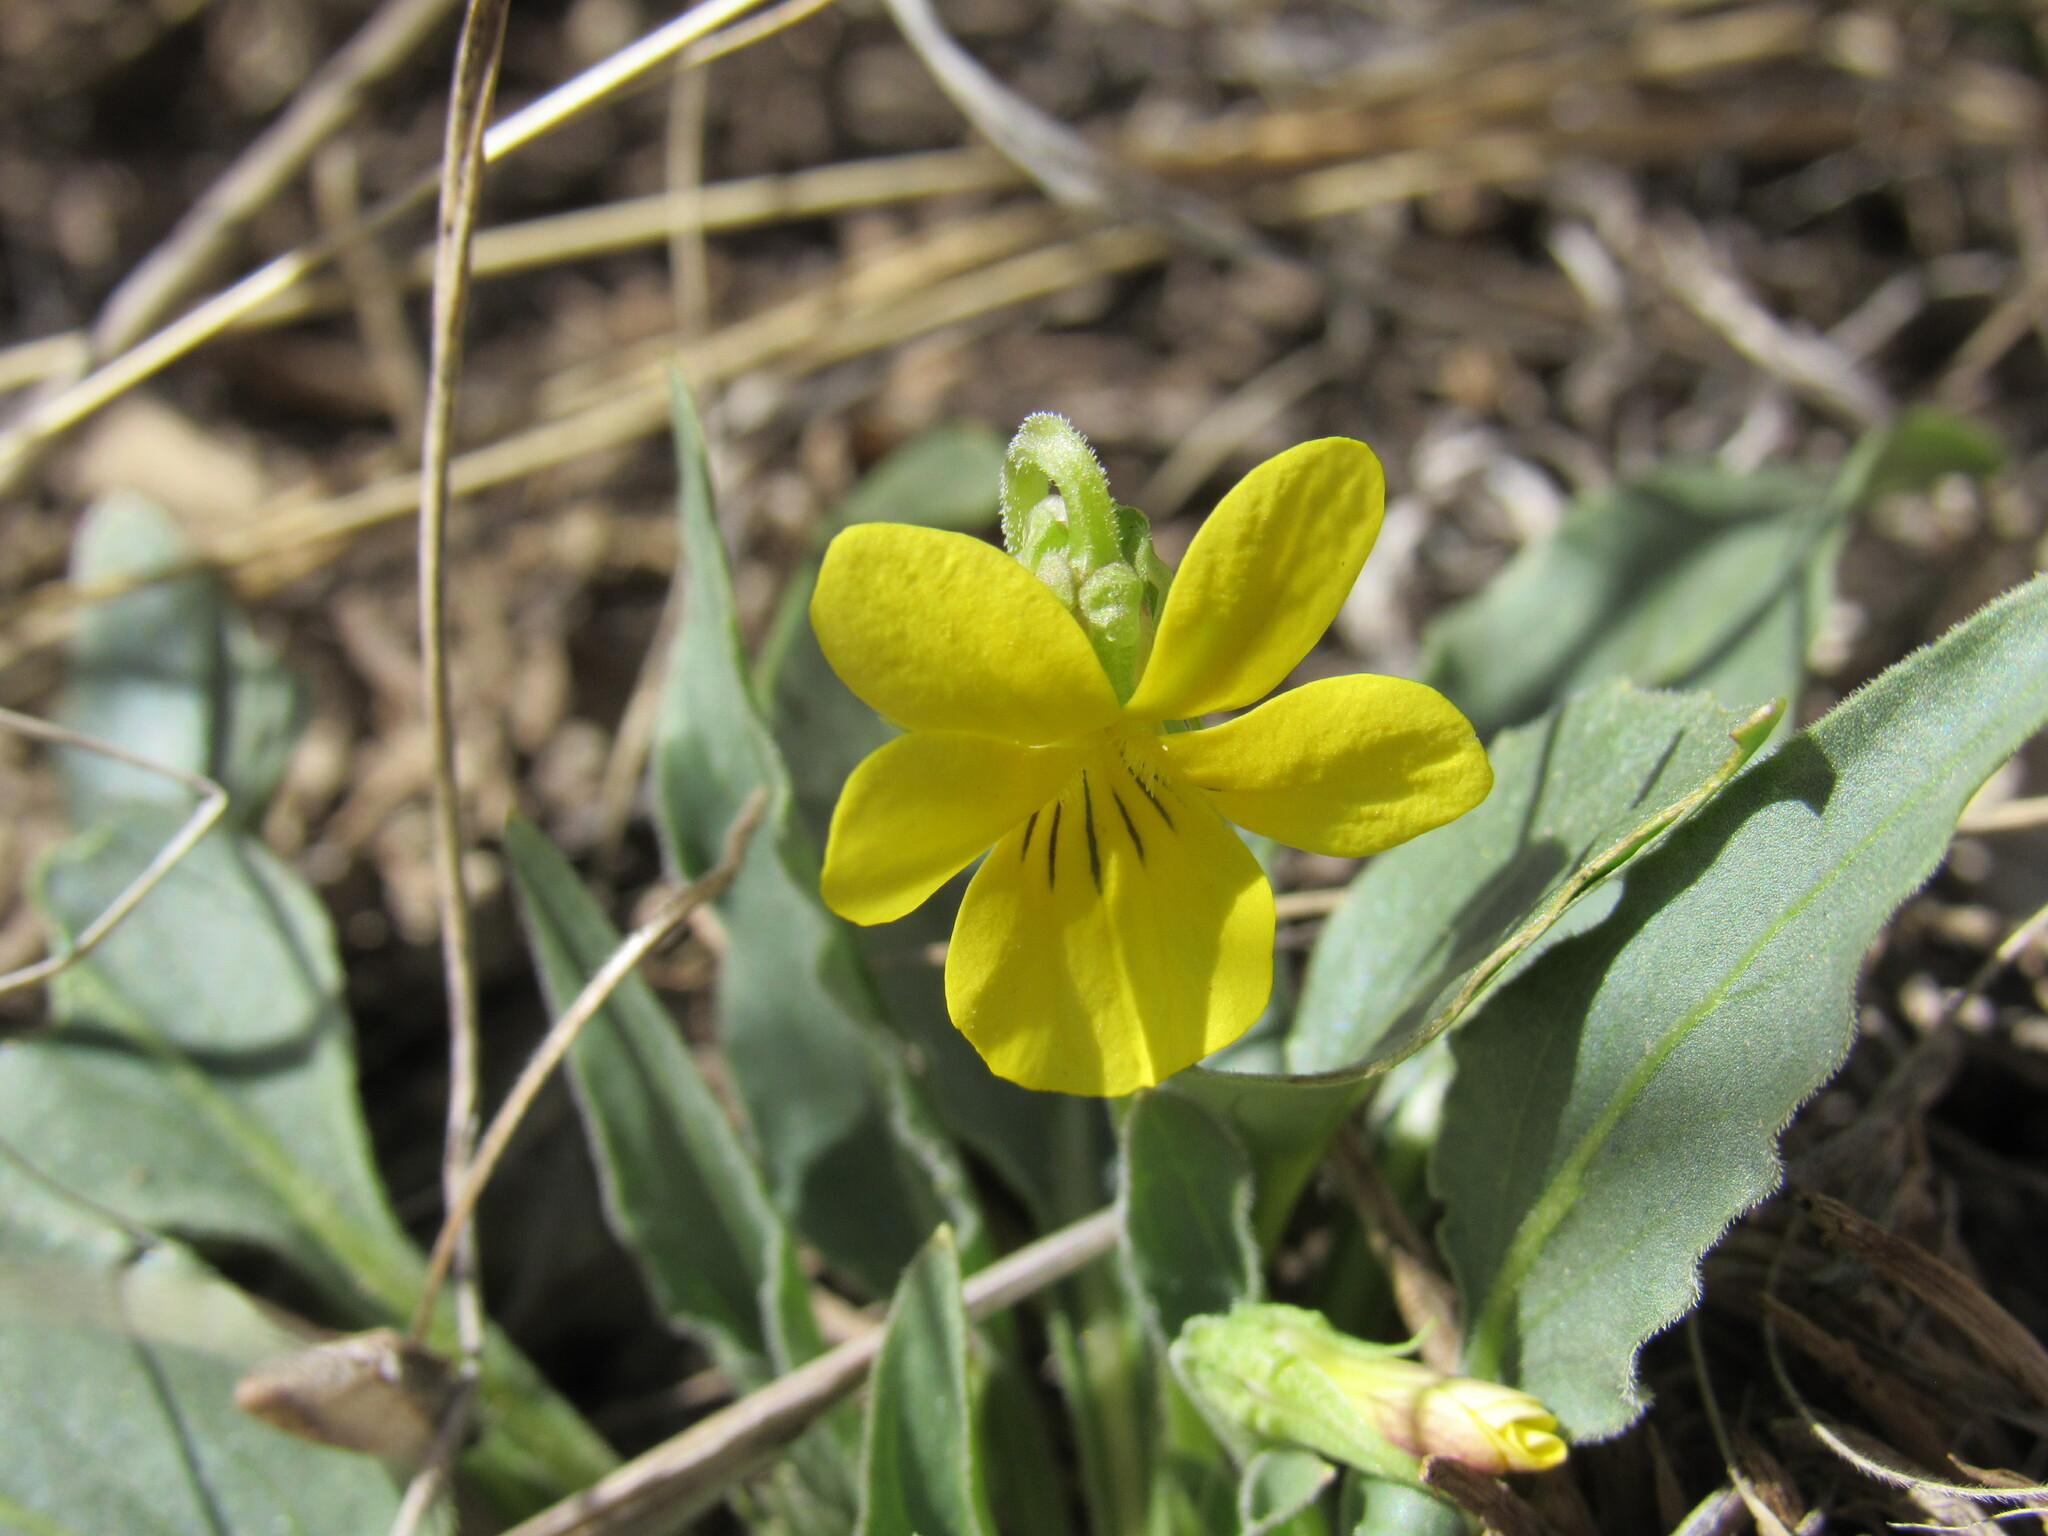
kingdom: Plantae
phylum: Tracheophyta
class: Magnoliopsida
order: Malpighiales
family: Violaceae
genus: Viola
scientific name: Viola nuttallii
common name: Yellow prairie violet
